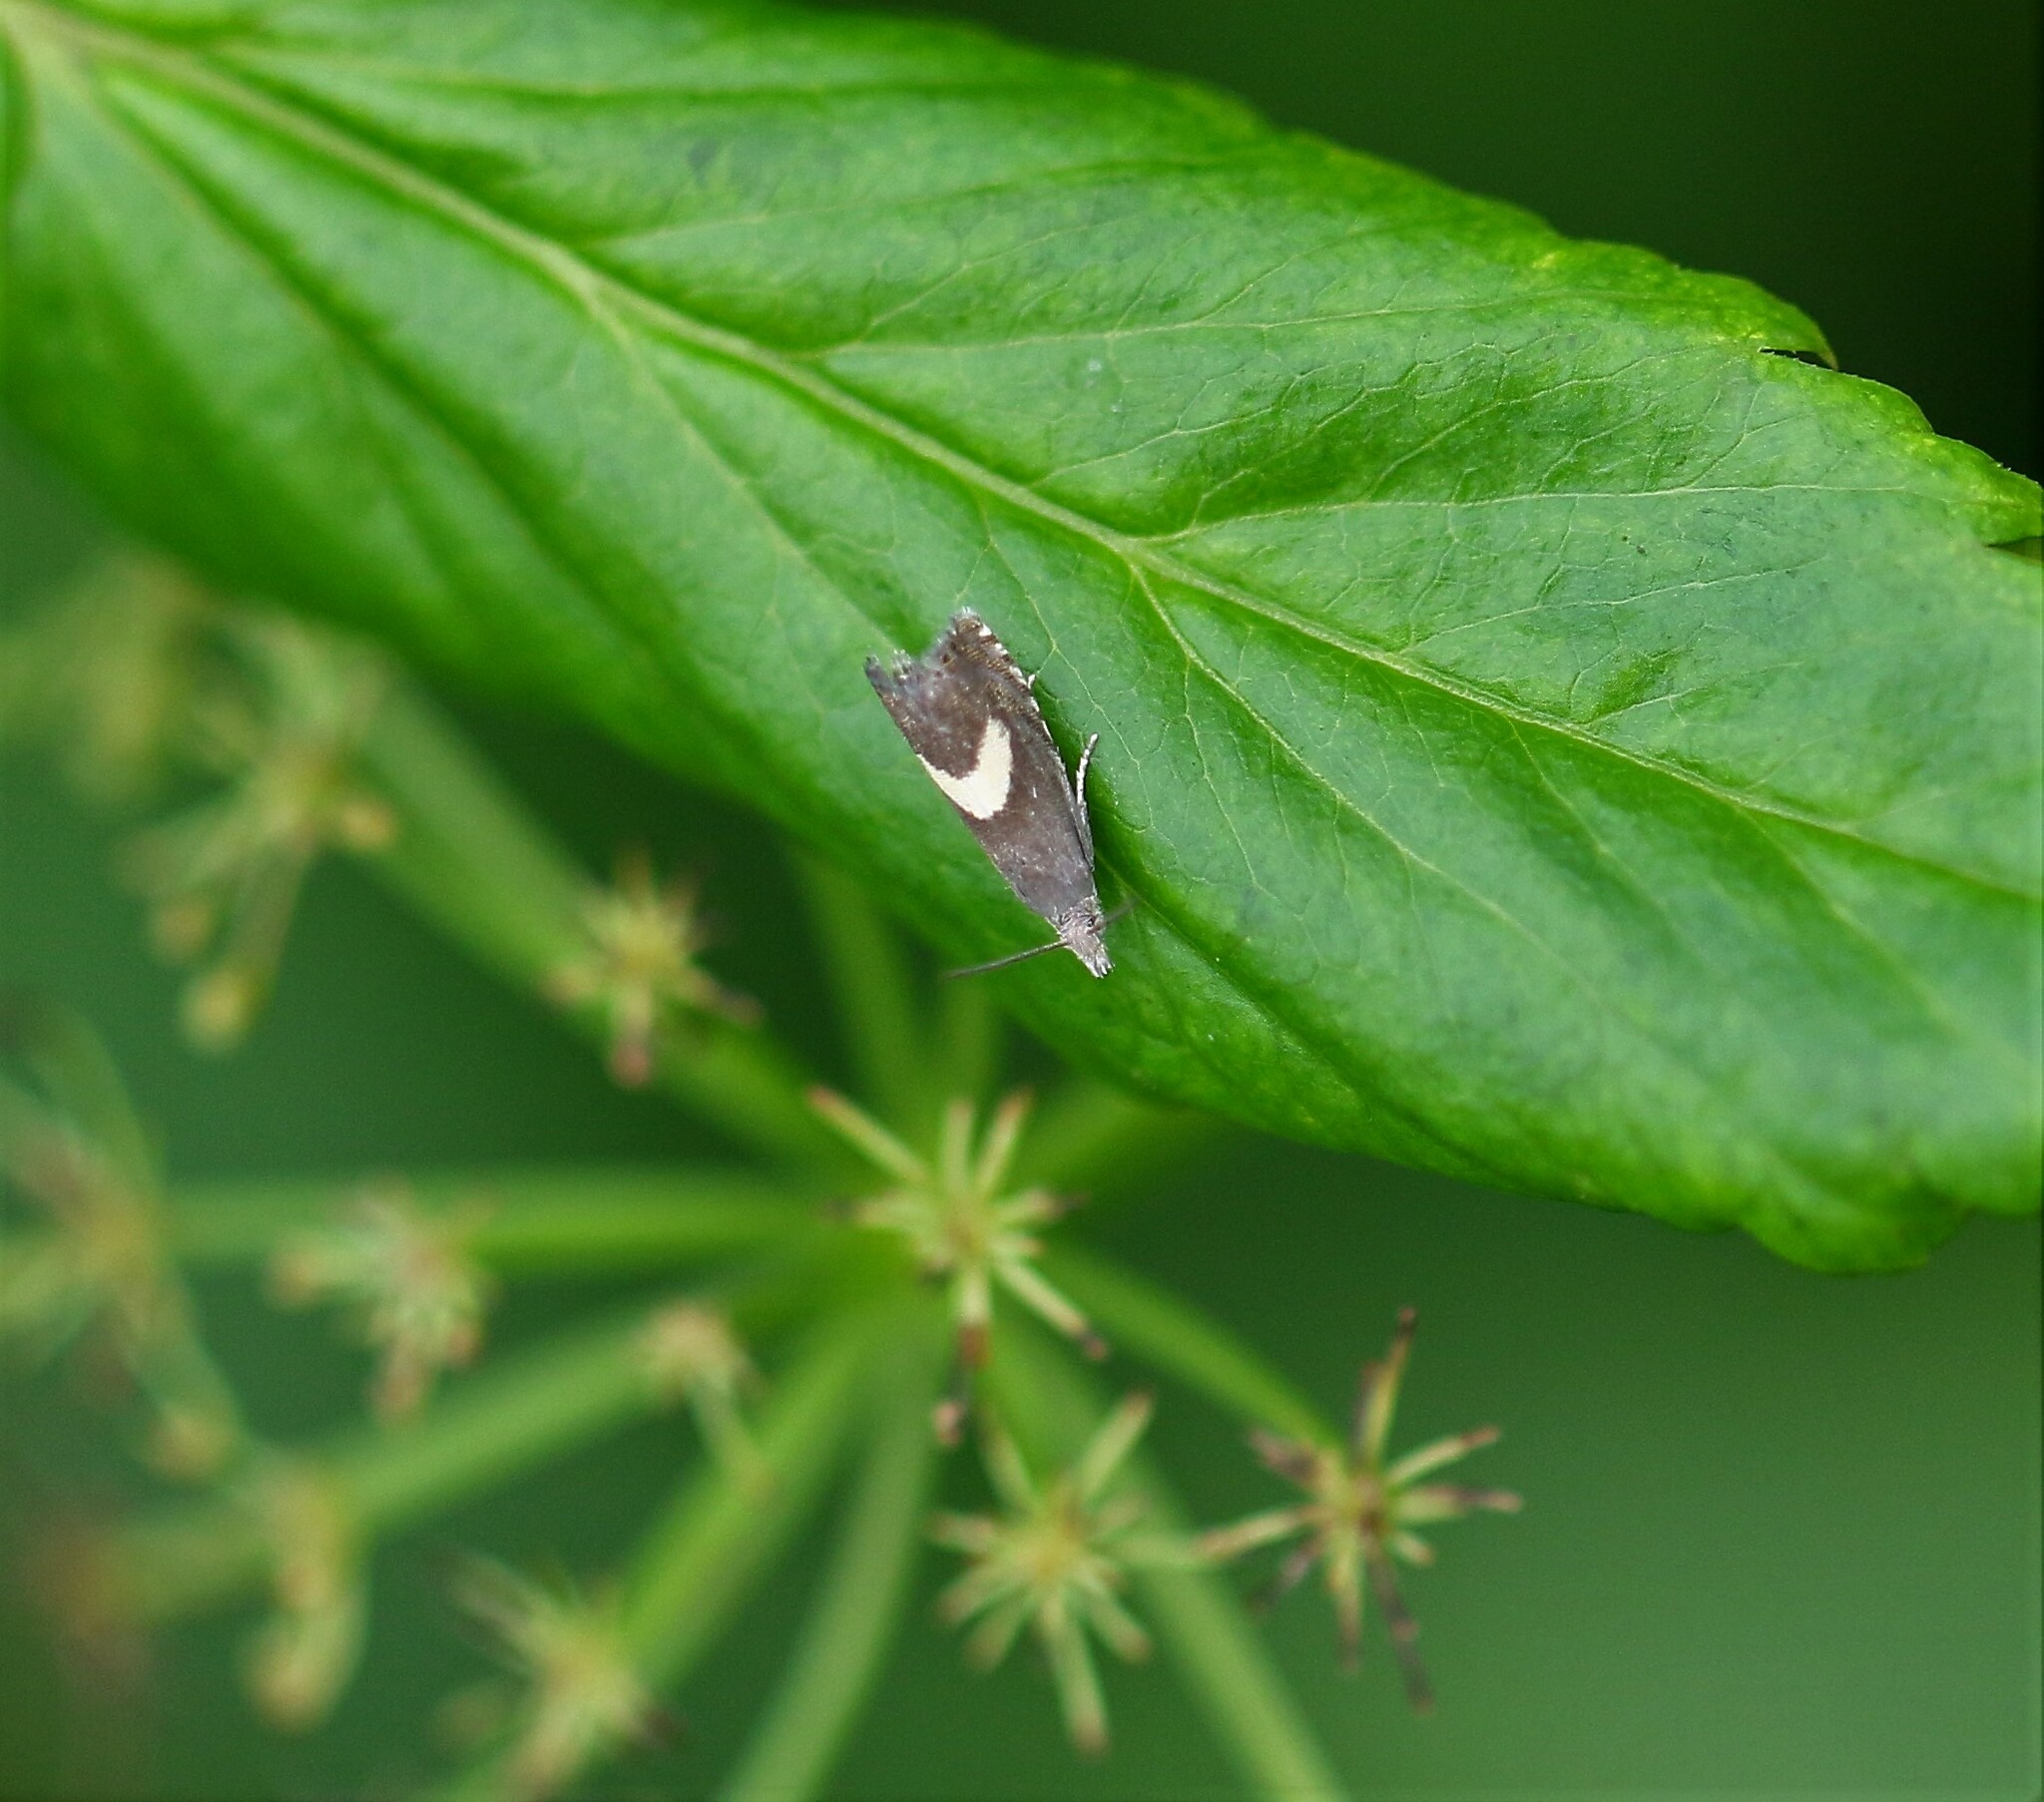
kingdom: Animalia
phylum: Arthropoda
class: Insecta
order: Lepidoptera
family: Tortricidae
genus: Dichrorampha
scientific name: Dichrorampha petiverella
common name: Common drill
